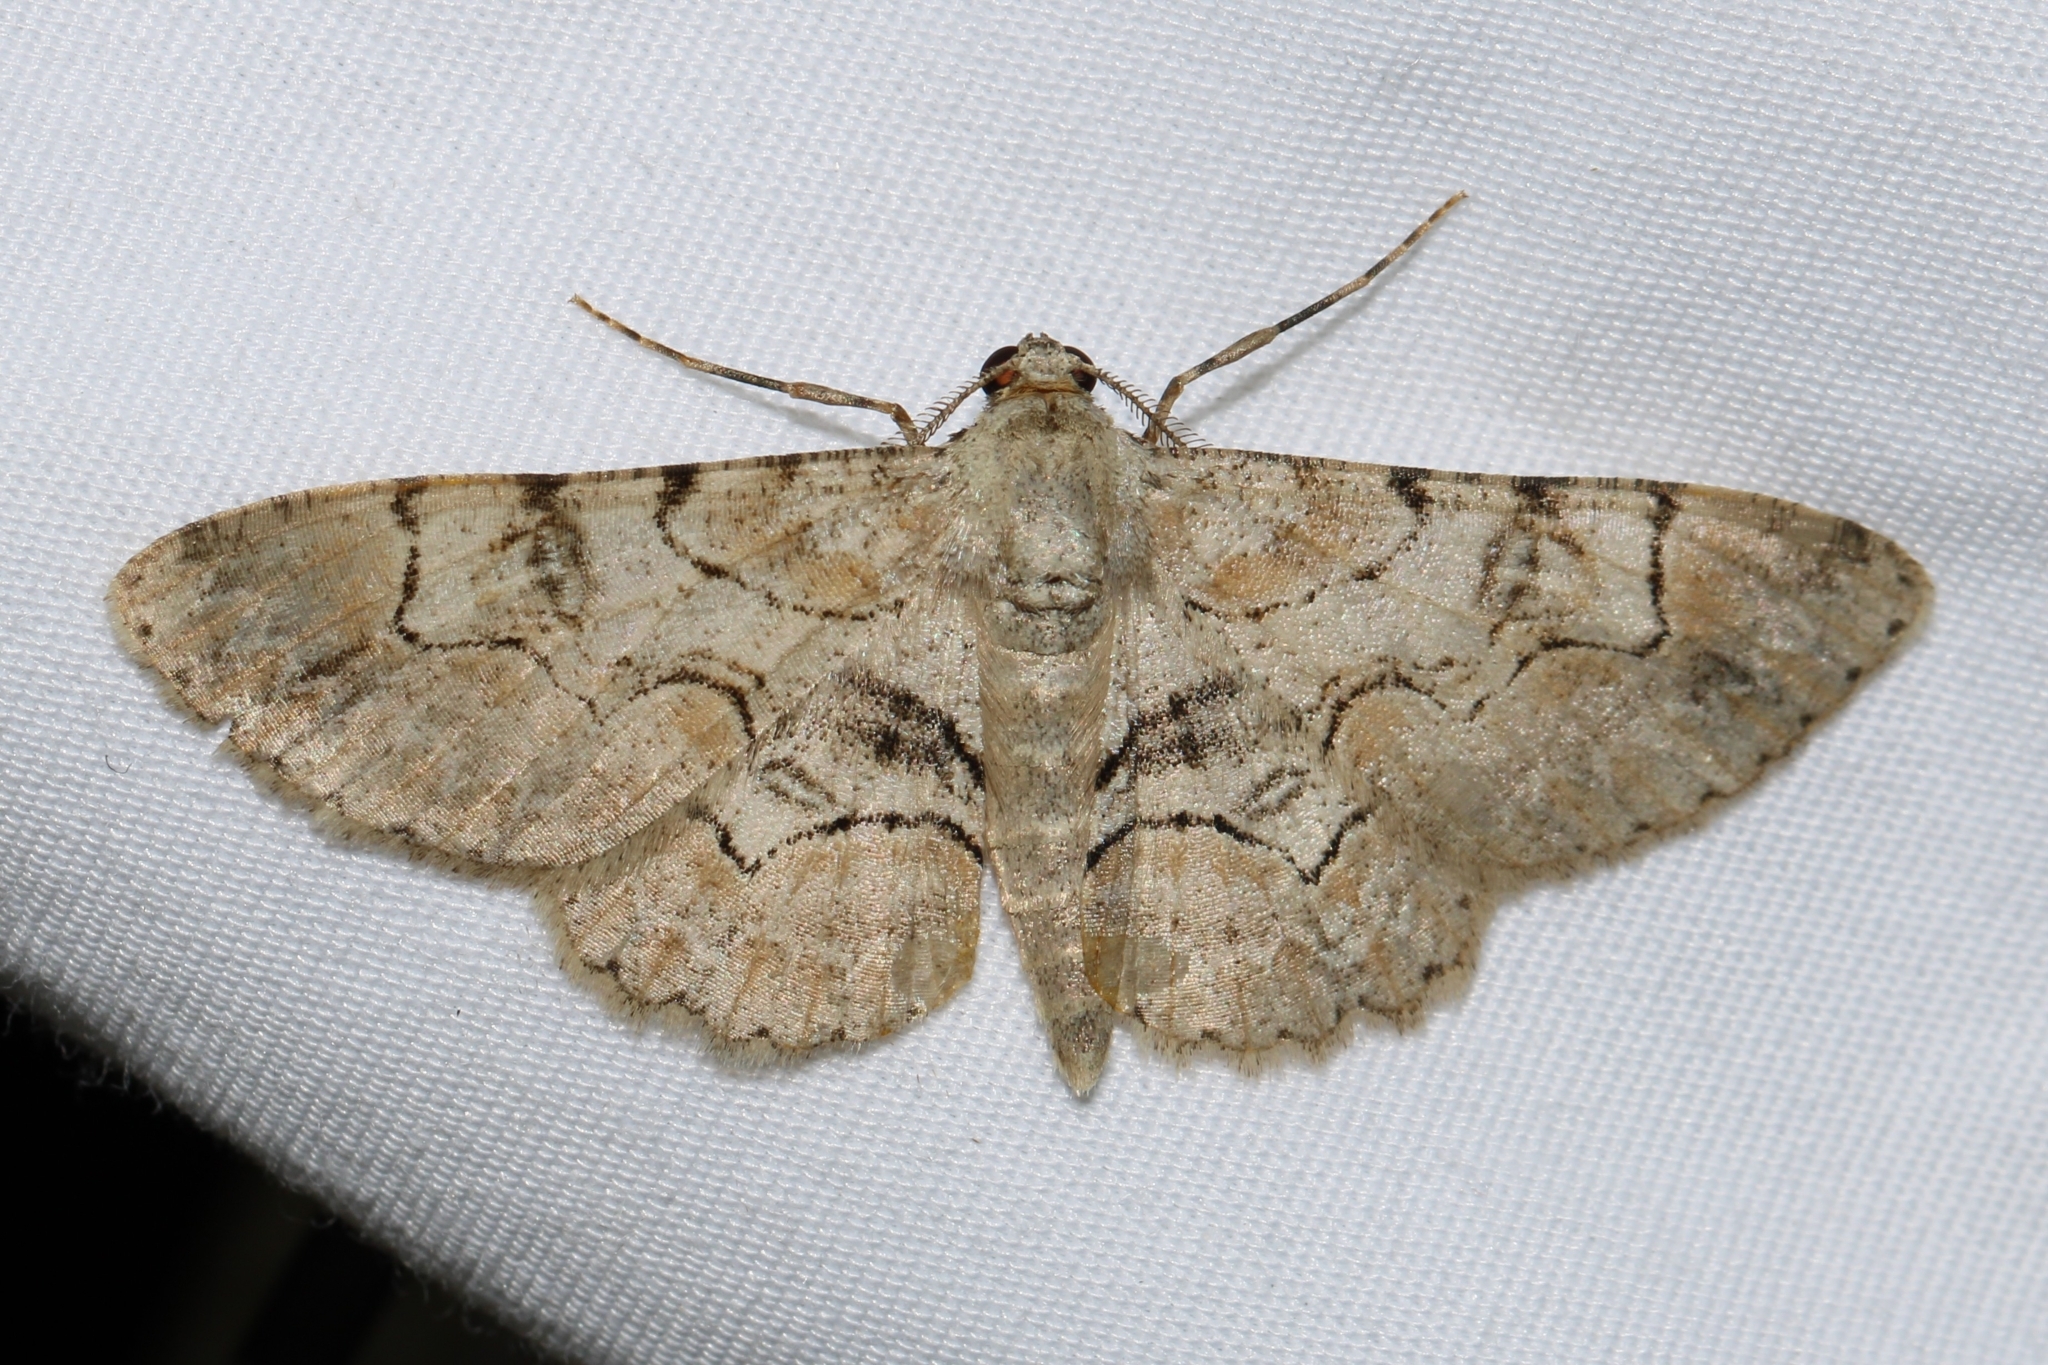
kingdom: Animalia
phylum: Arthropoda
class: Insecta
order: Lepidoptera
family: Geometridae
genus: Iridopsis
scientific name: Iridopsis larvaria
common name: Bent-line gray
